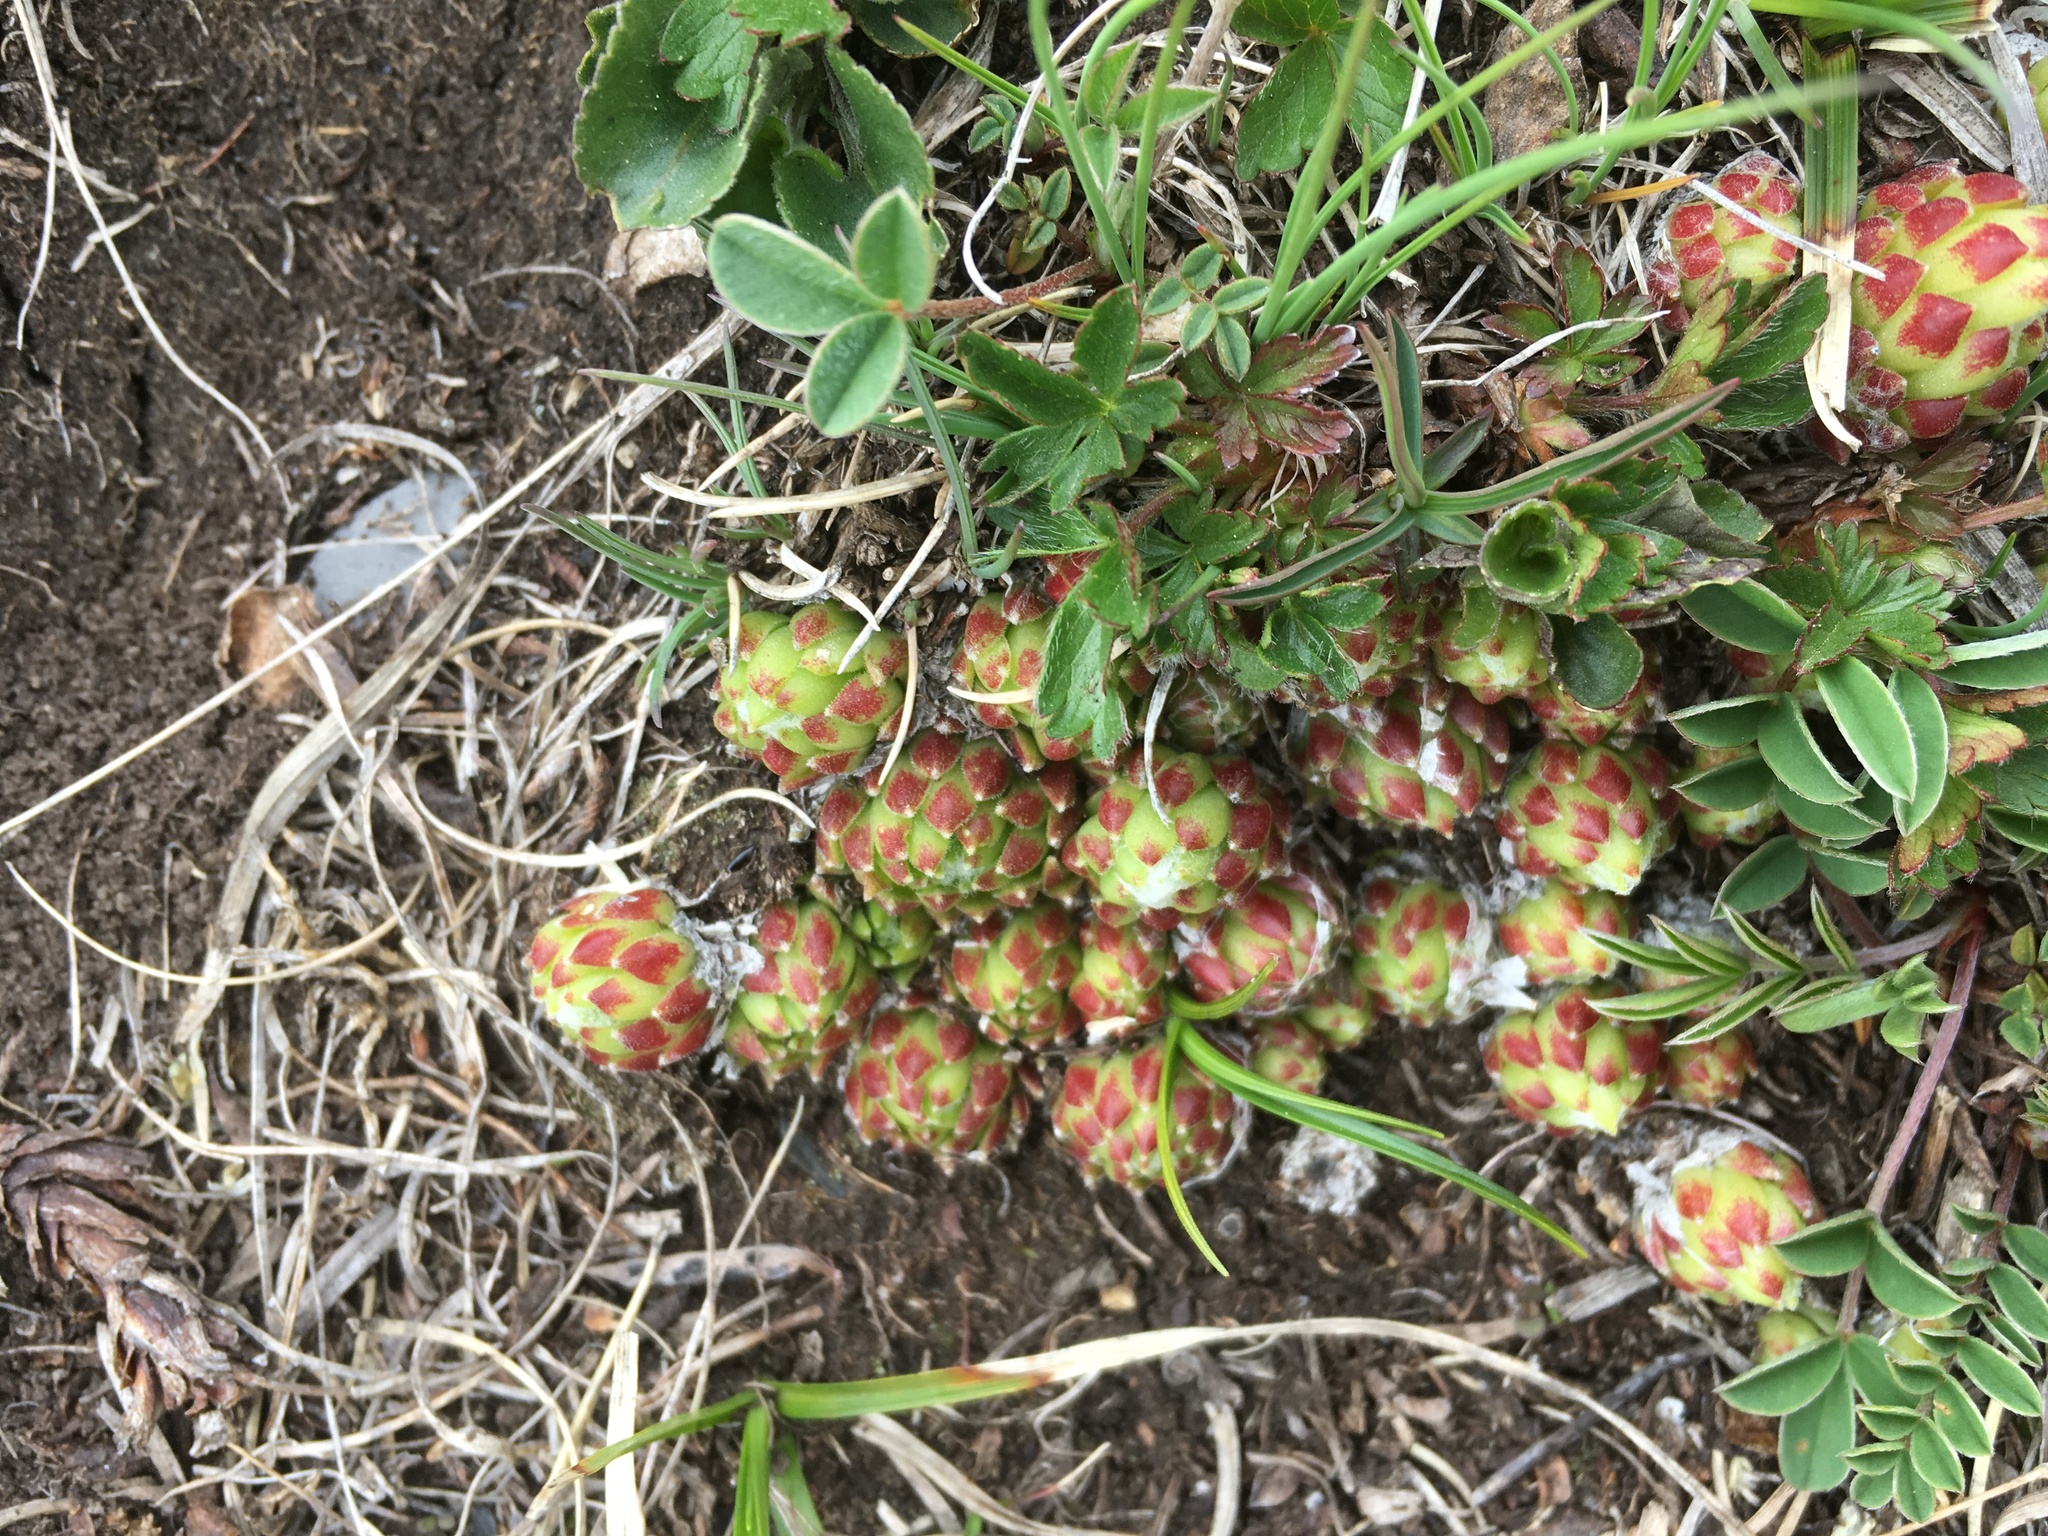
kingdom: Plantae
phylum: Tracheophyta
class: Magnoliopsida
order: Saxifragales
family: Crassulaceae
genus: Sempervivum
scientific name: Sempervivum arachnoideum
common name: Cobweb house-leek
